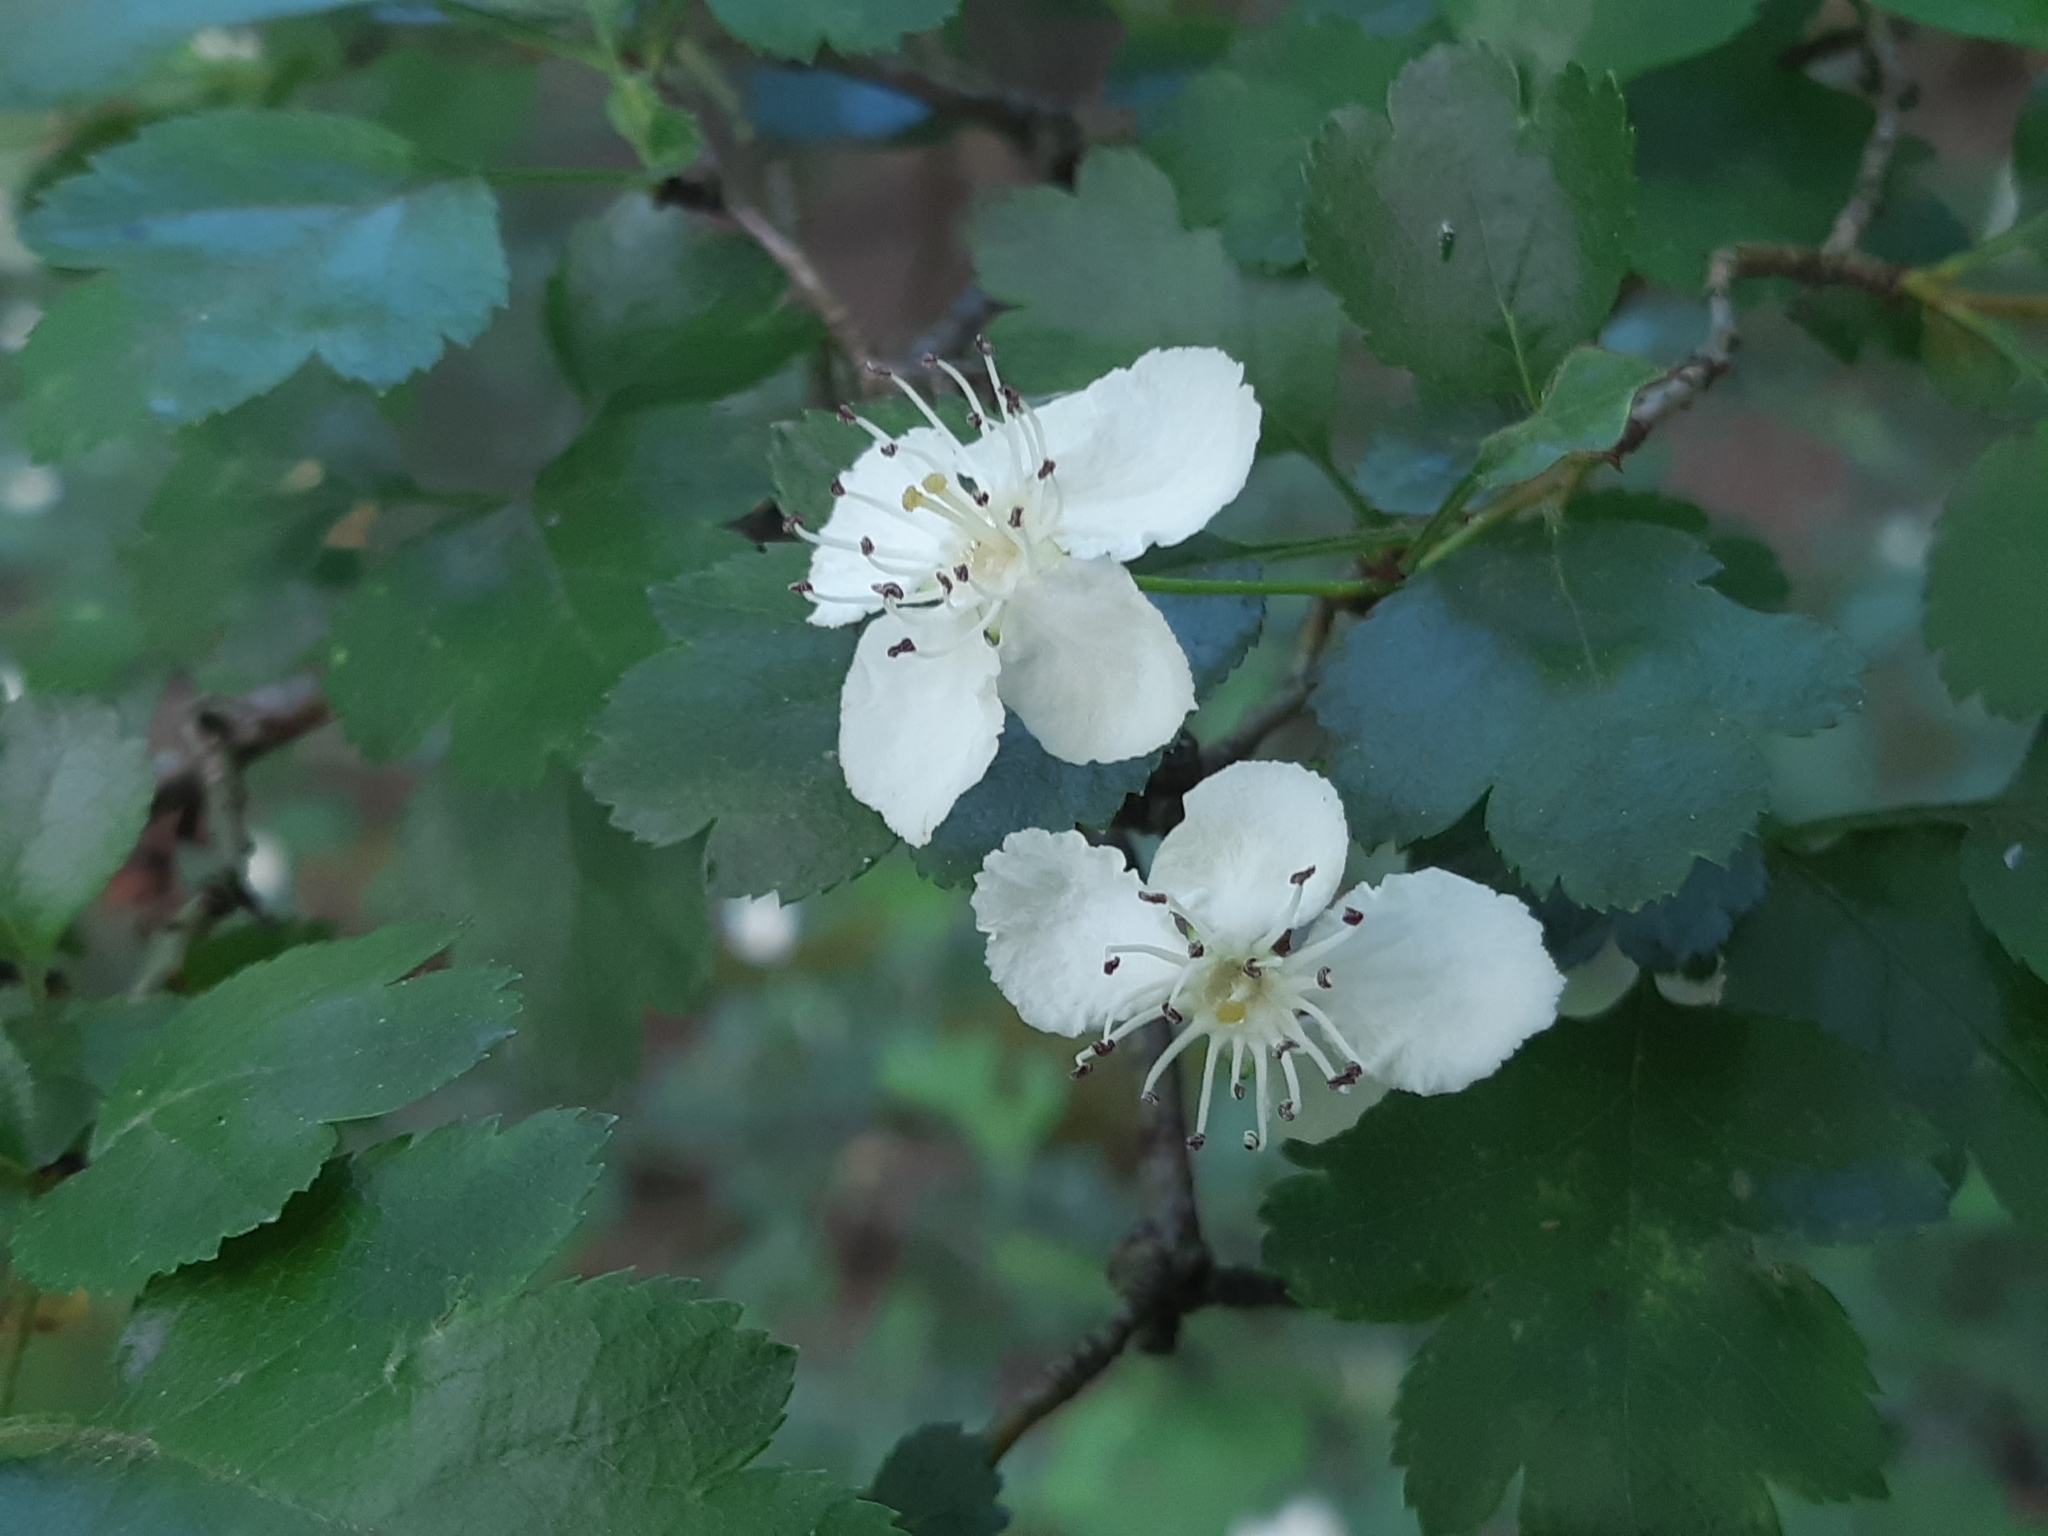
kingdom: Plantae
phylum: Tracheophyta
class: Magnoliopsida
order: Rosales
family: Rosaceae
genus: Crataegus
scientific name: Crataegus laevigata
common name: Midland hawthorn
